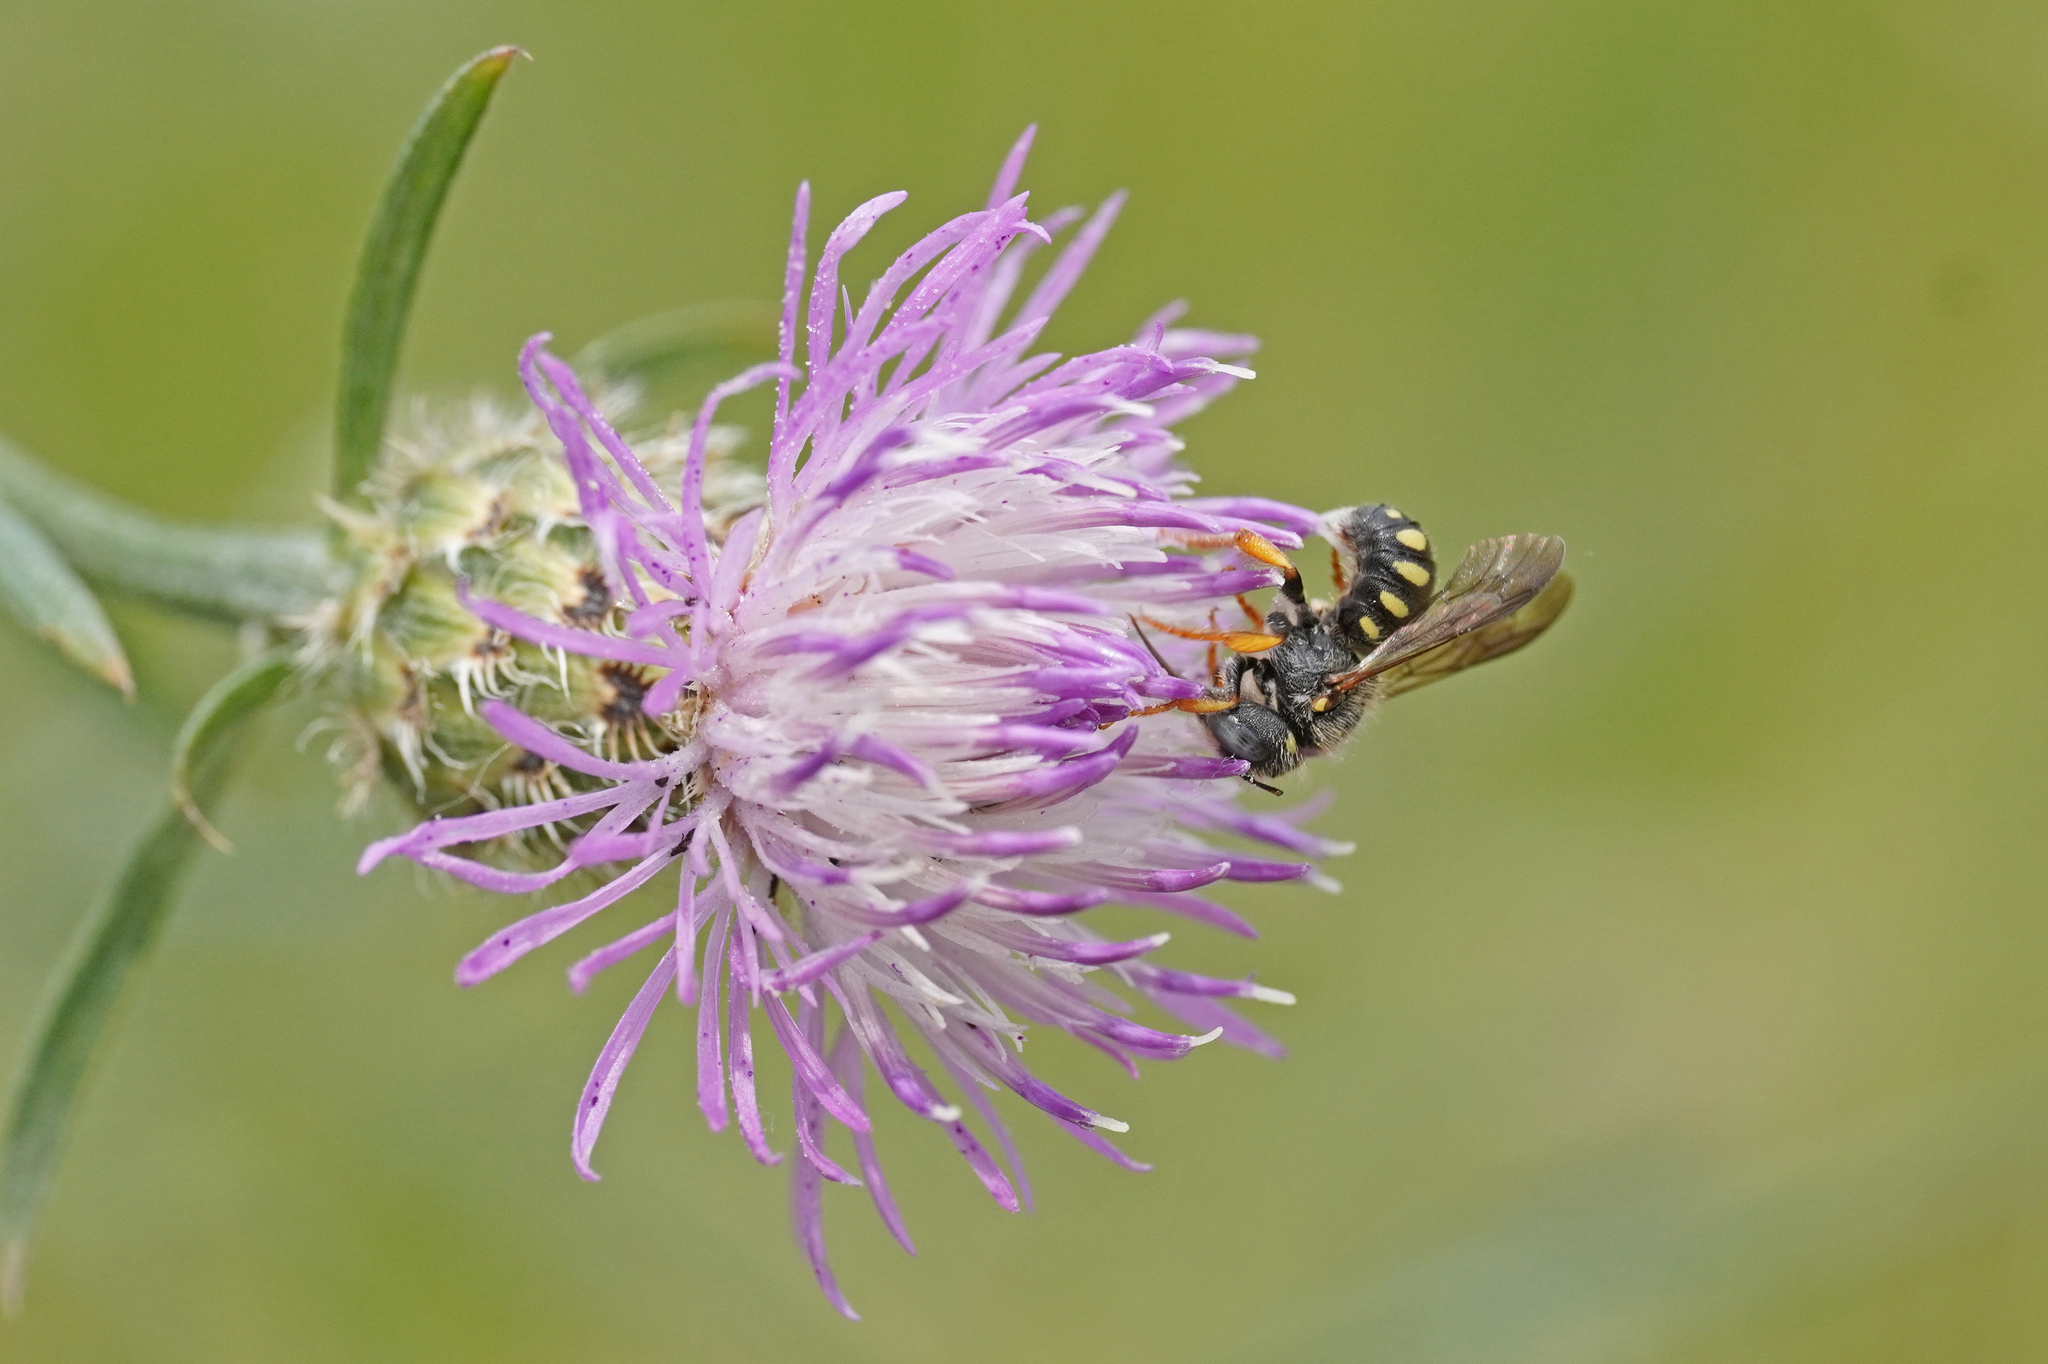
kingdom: Animalia
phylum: Arthropoda
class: Insecta
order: Hymenoptera
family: Megachilidae
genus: Pseudoanthidium
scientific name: Pseudoanthidium nanum
